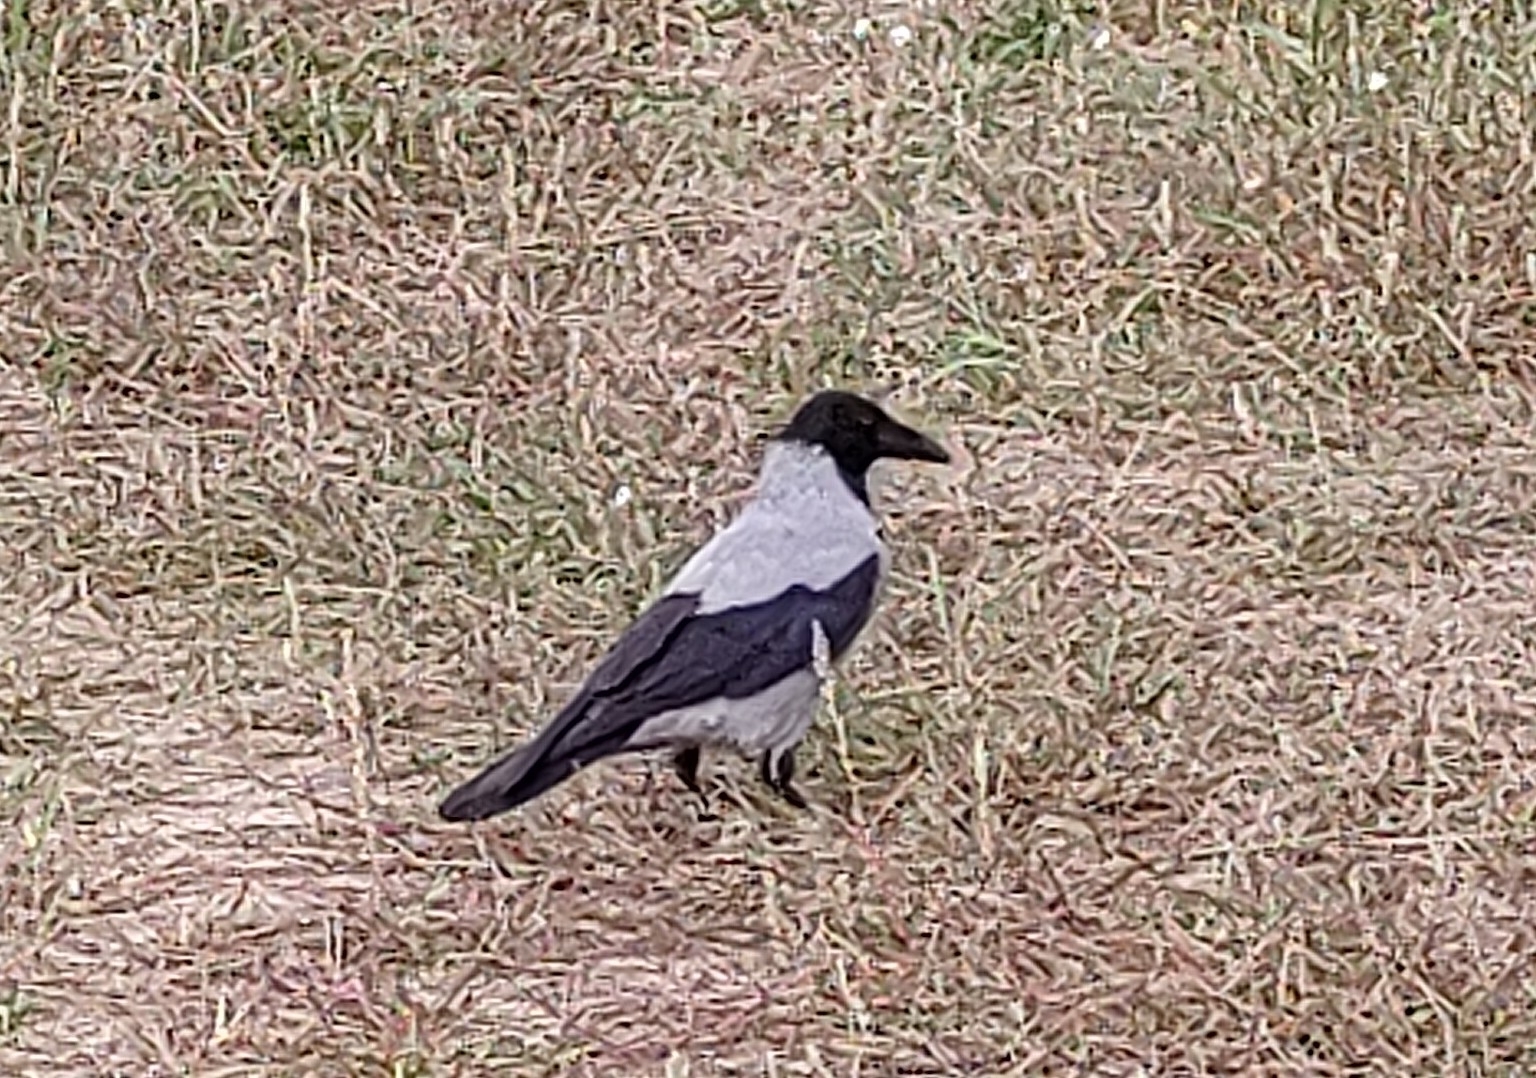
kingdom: Animalia
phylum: Chordata
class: Aves
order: Passeriformes
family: Corvidae
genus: Corvus
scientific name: Corvus cornix
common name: Hooded crow
